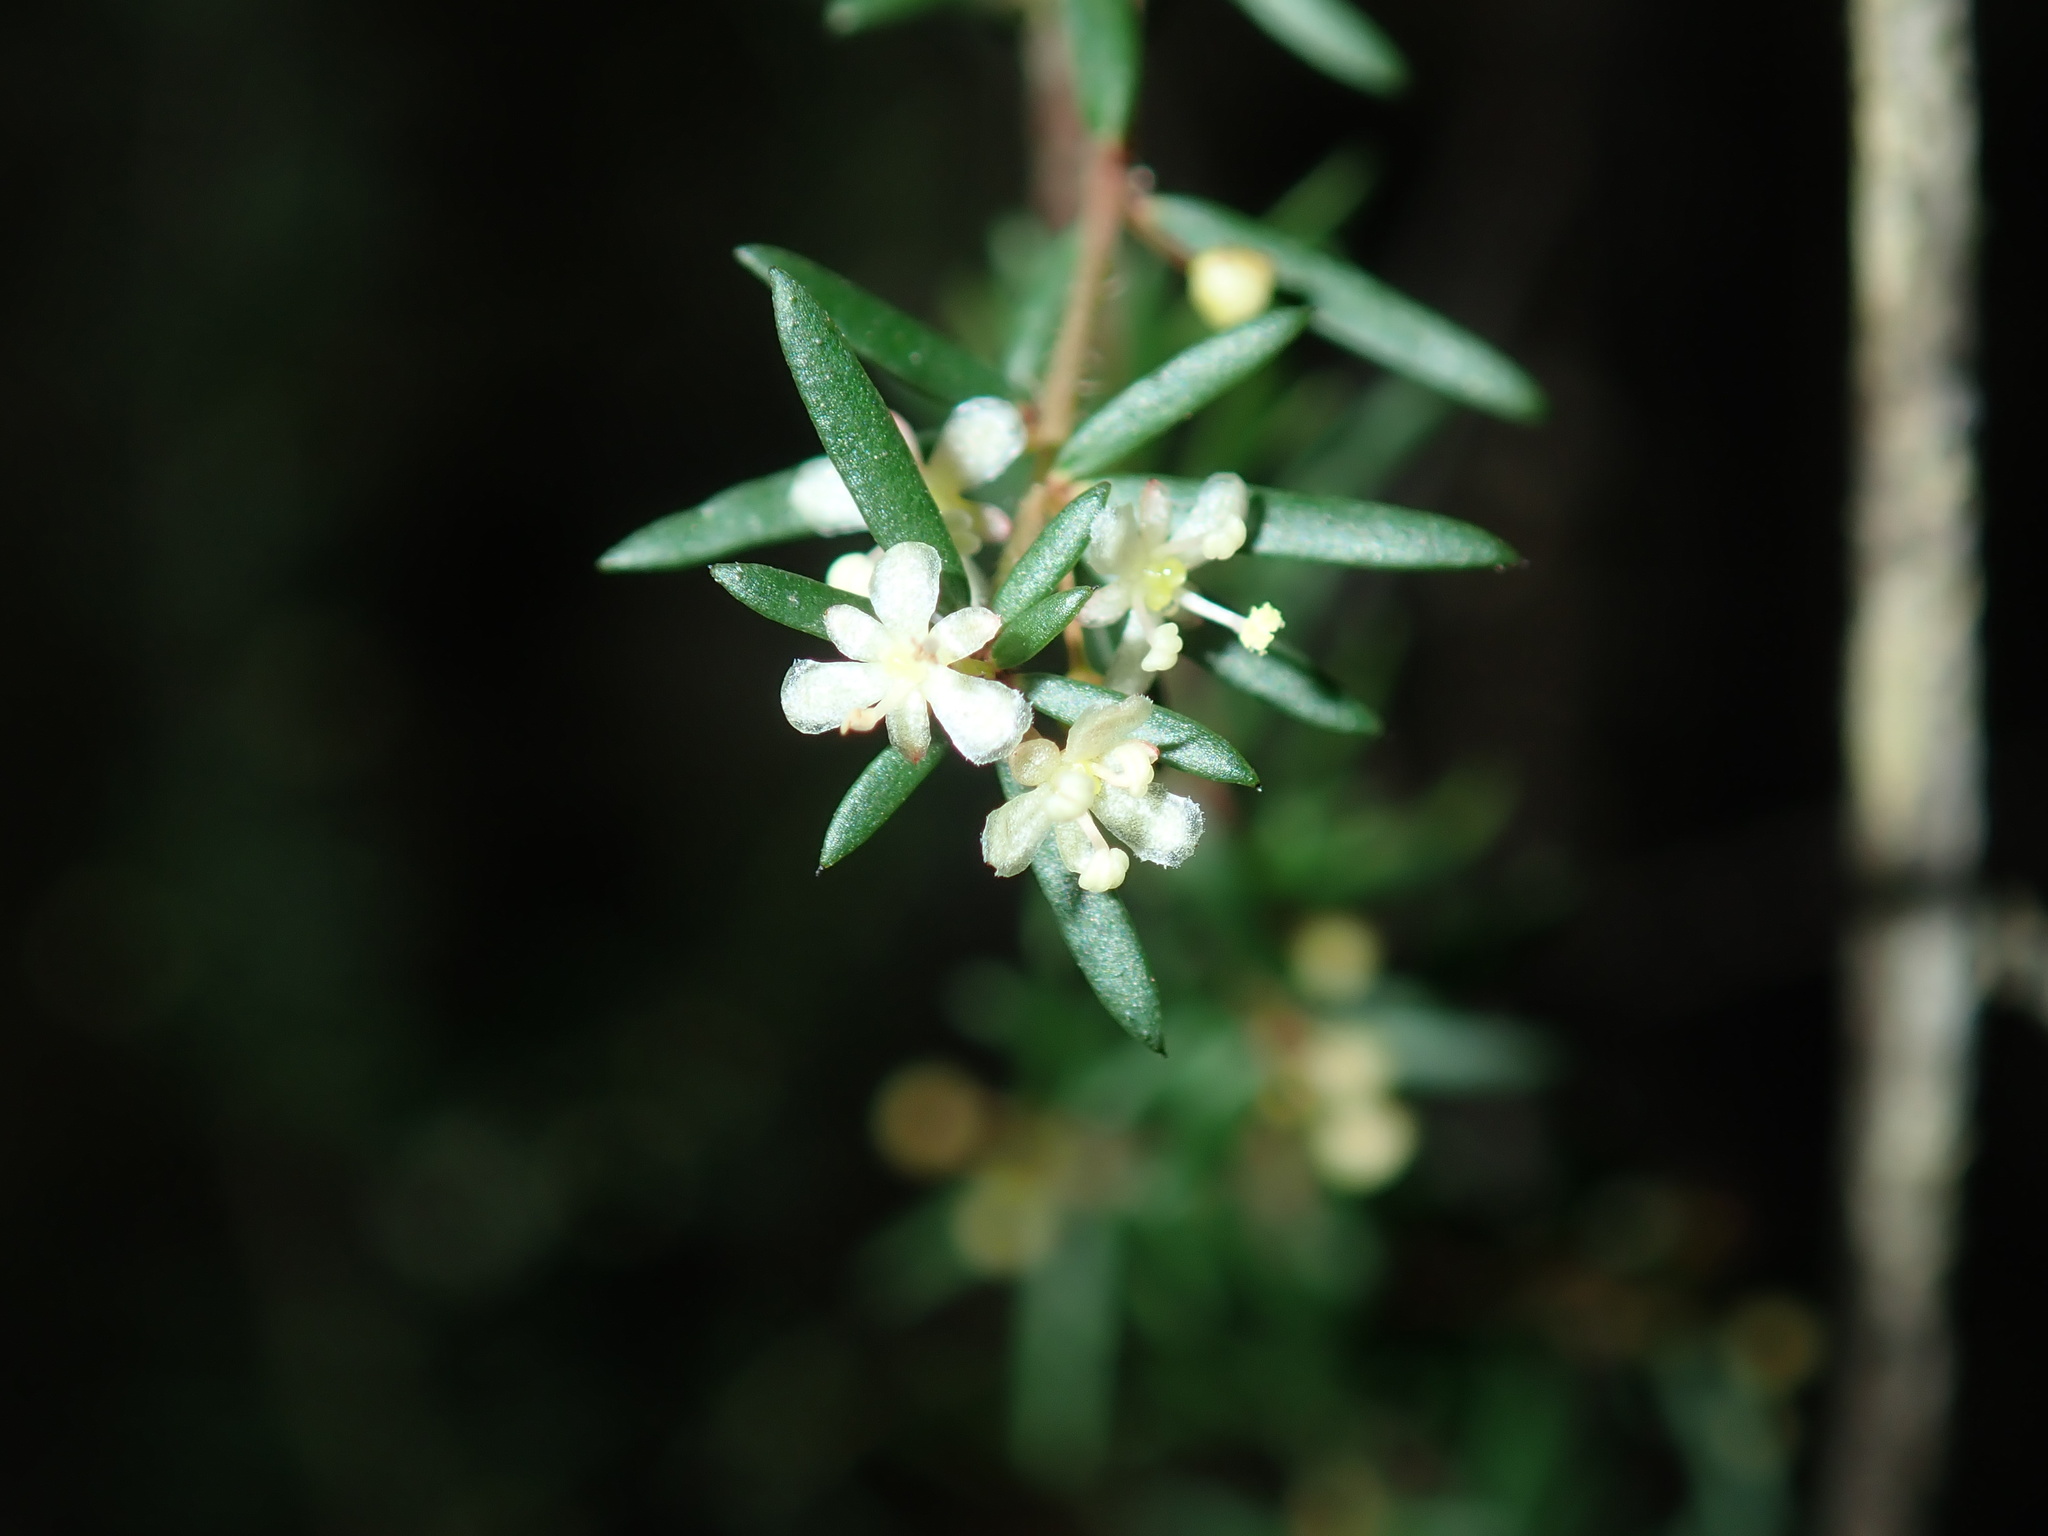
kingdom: Plantae
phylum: Tracheophyta
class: Magnoliopsida
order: Malpighiales
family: Picrodendraceae
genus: Micrantheum
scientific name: Micrantheum ericoides
